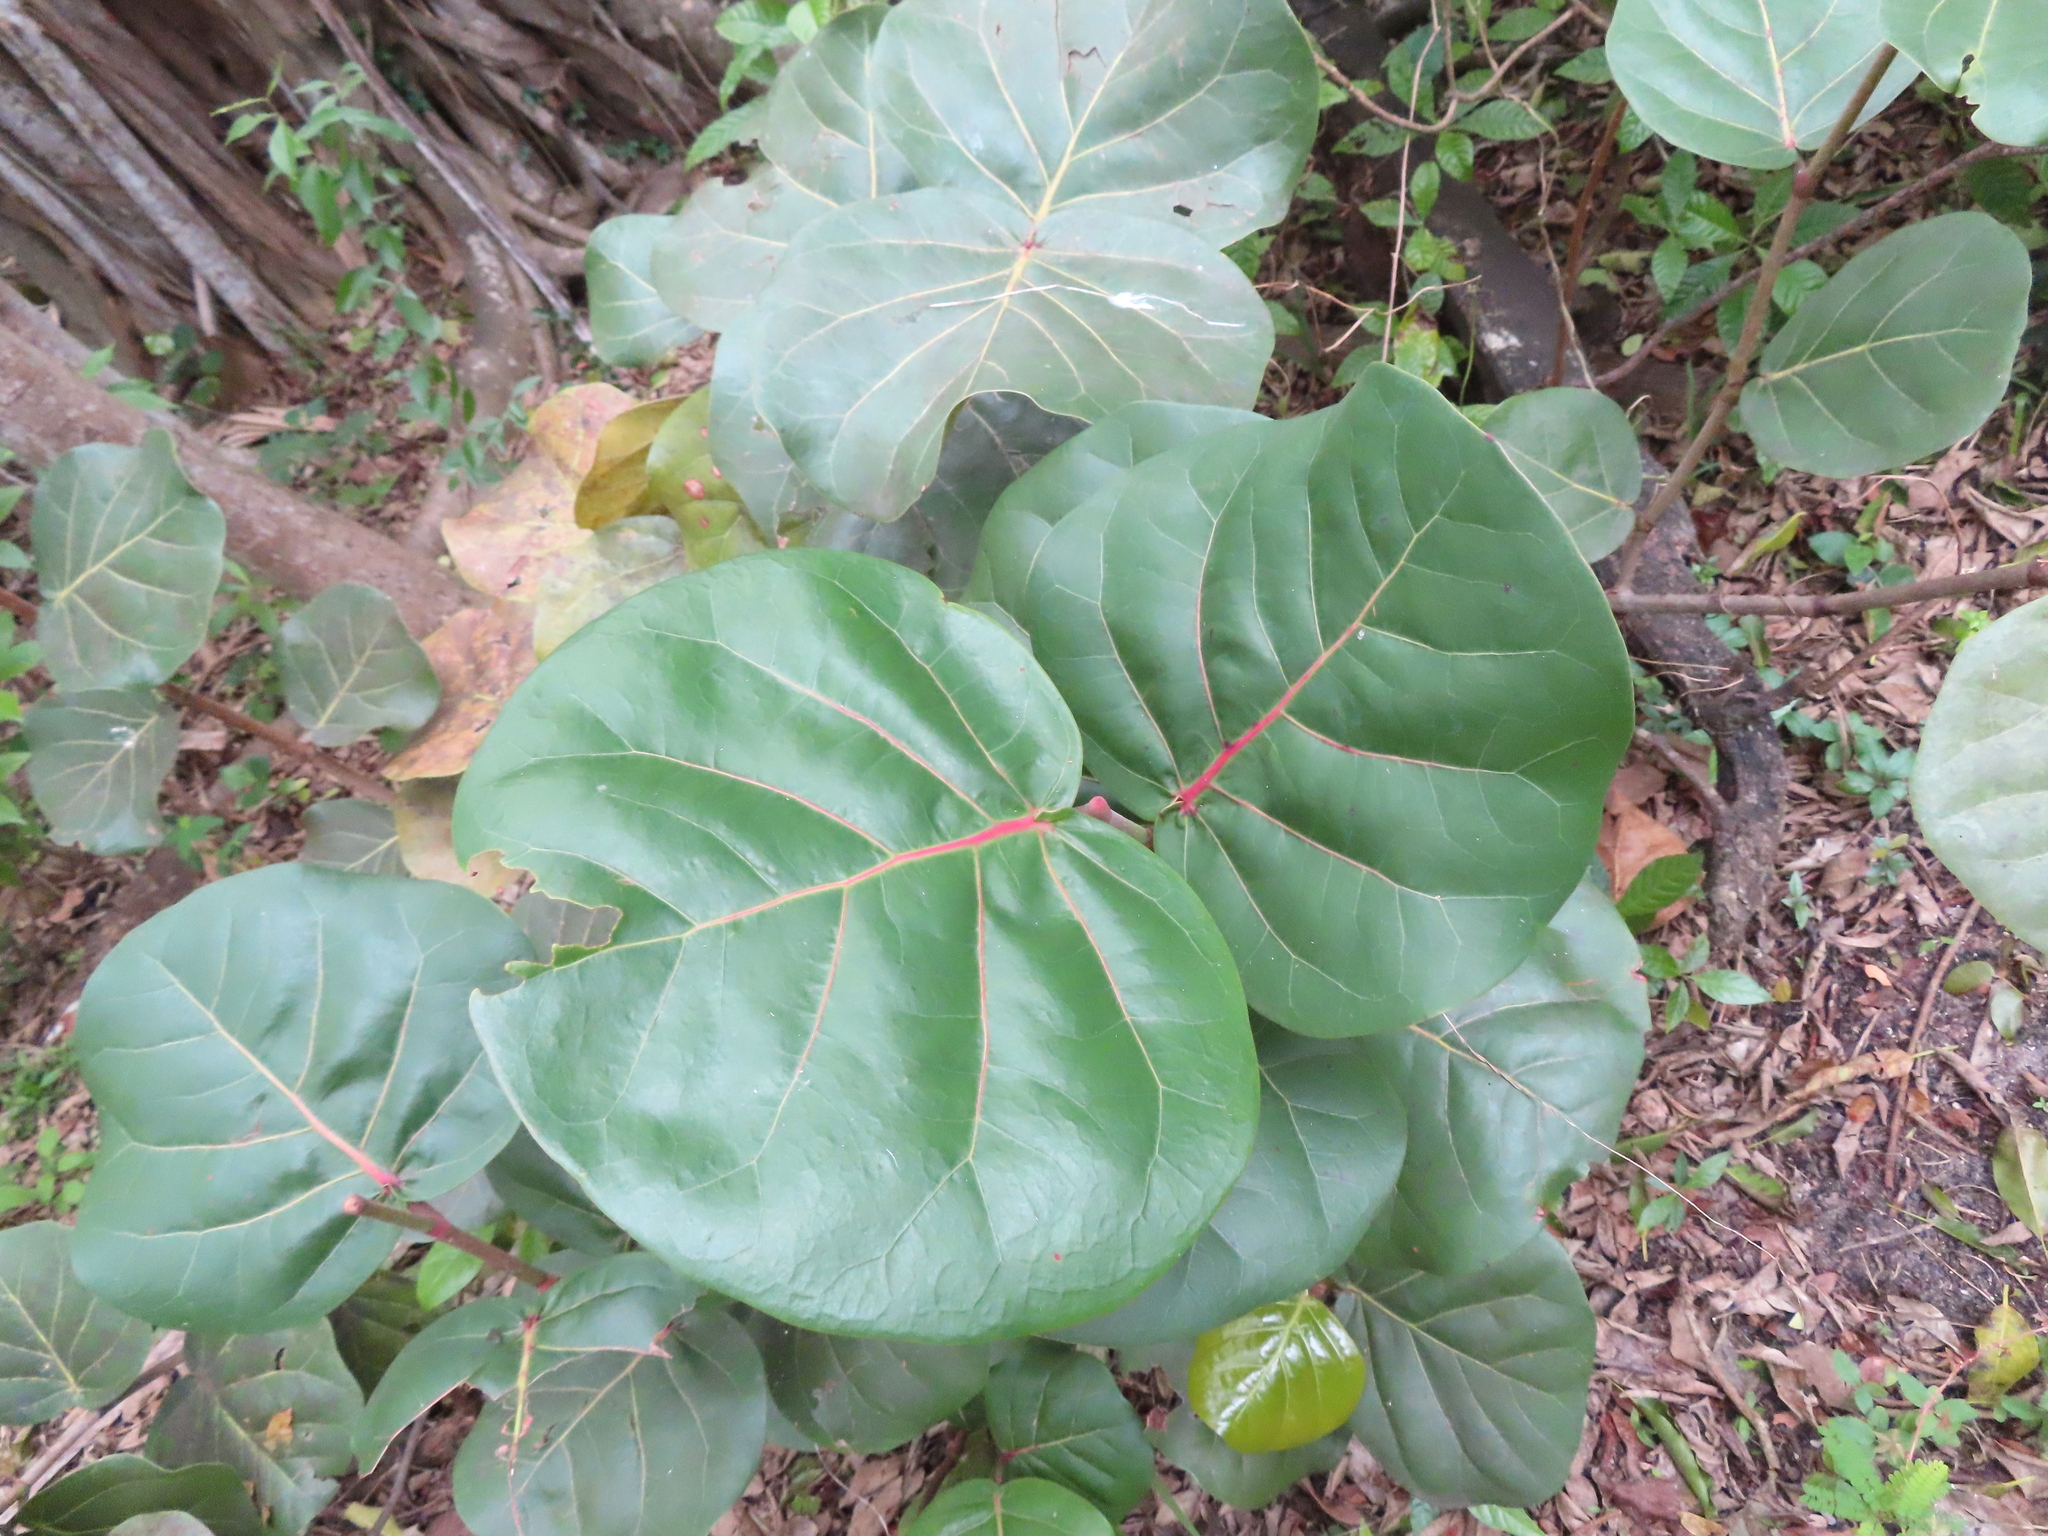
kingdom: Plantae
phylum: Tracheophyta
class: Magnoliopsida
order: Caryophyllales
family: Polygonaceae
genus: Coccoloba
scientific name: Coccoloba uvifera
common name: Seagrape
